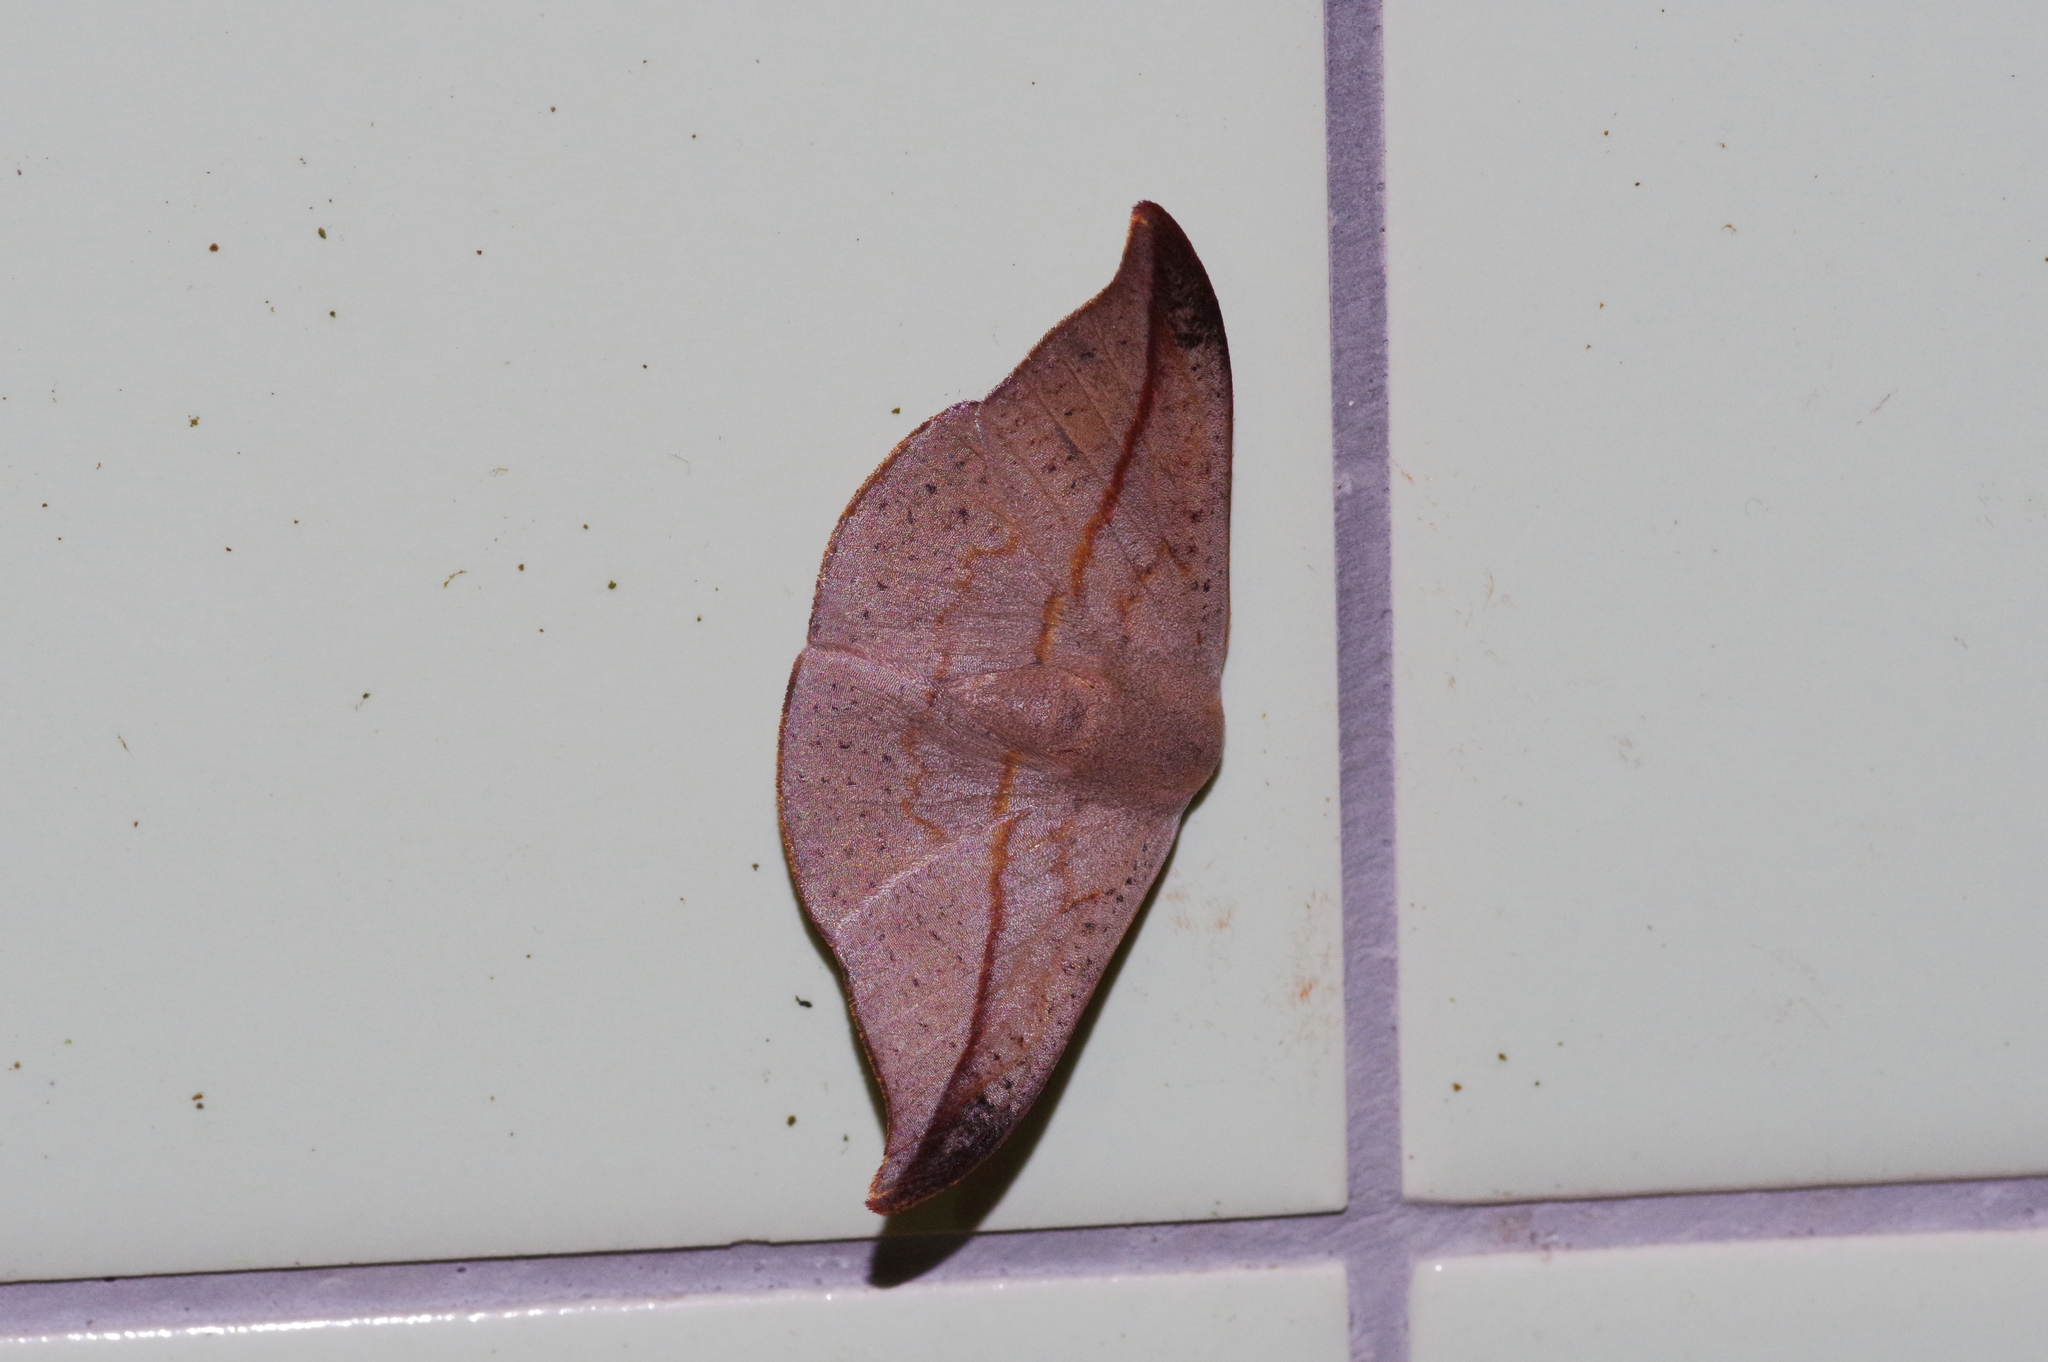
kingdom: Animalia
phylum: Arthropoda
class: Insecta
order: Lepidoptera
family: Drepanidae
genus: Oreta
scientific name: Oreta insignis
